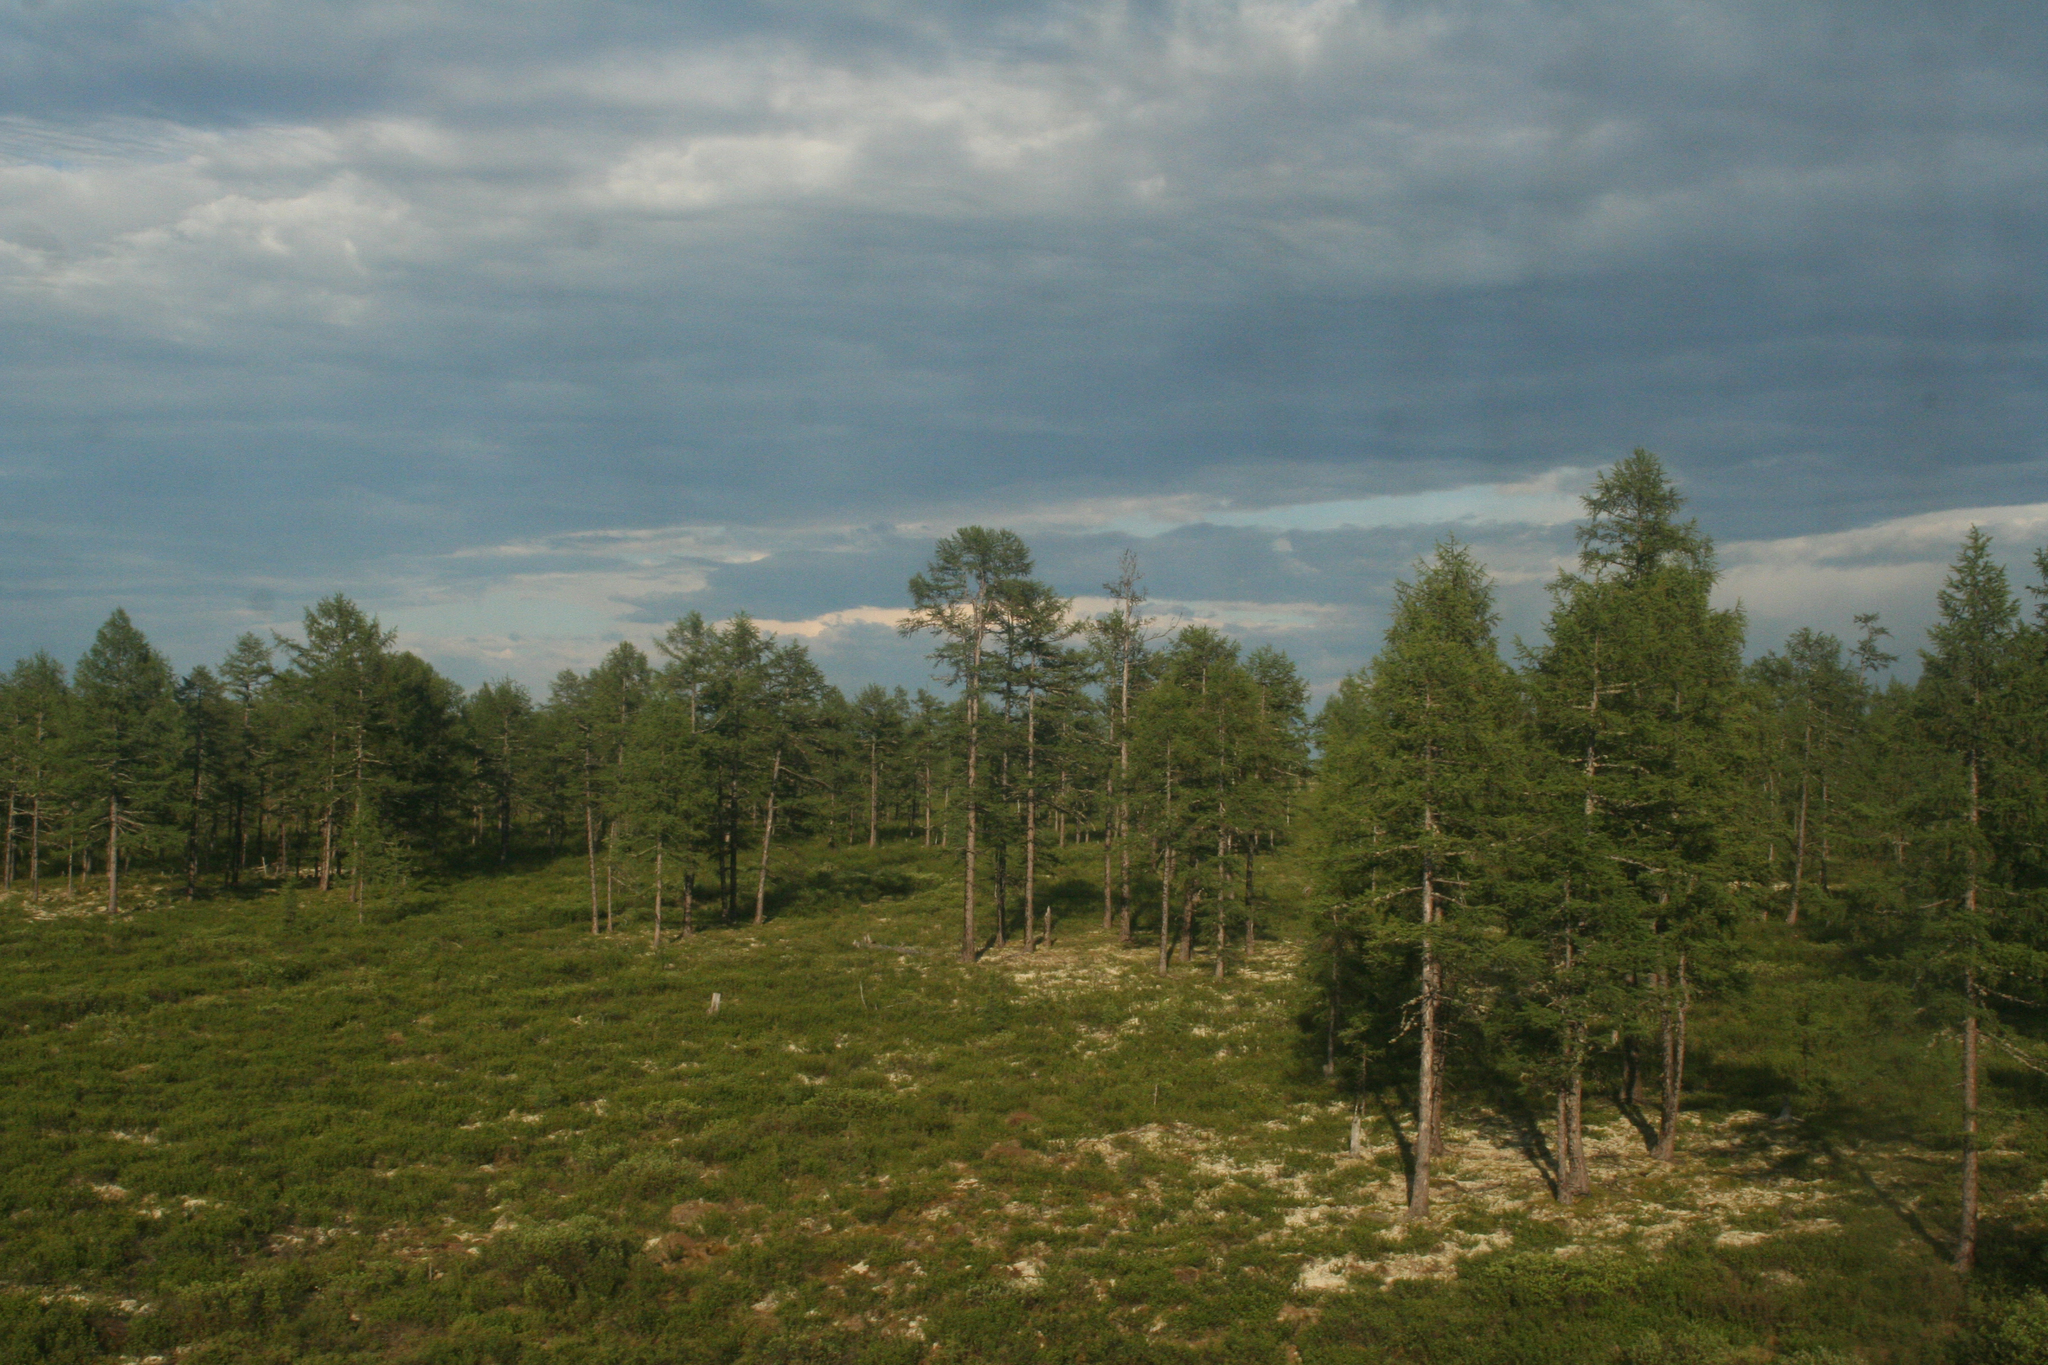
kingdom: Plantae
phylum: Tracheophyta
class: Pinopsida
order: Pinales
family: Pinaceae
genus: Larix
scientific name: Larix gmelinii
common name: Dahurian larch
